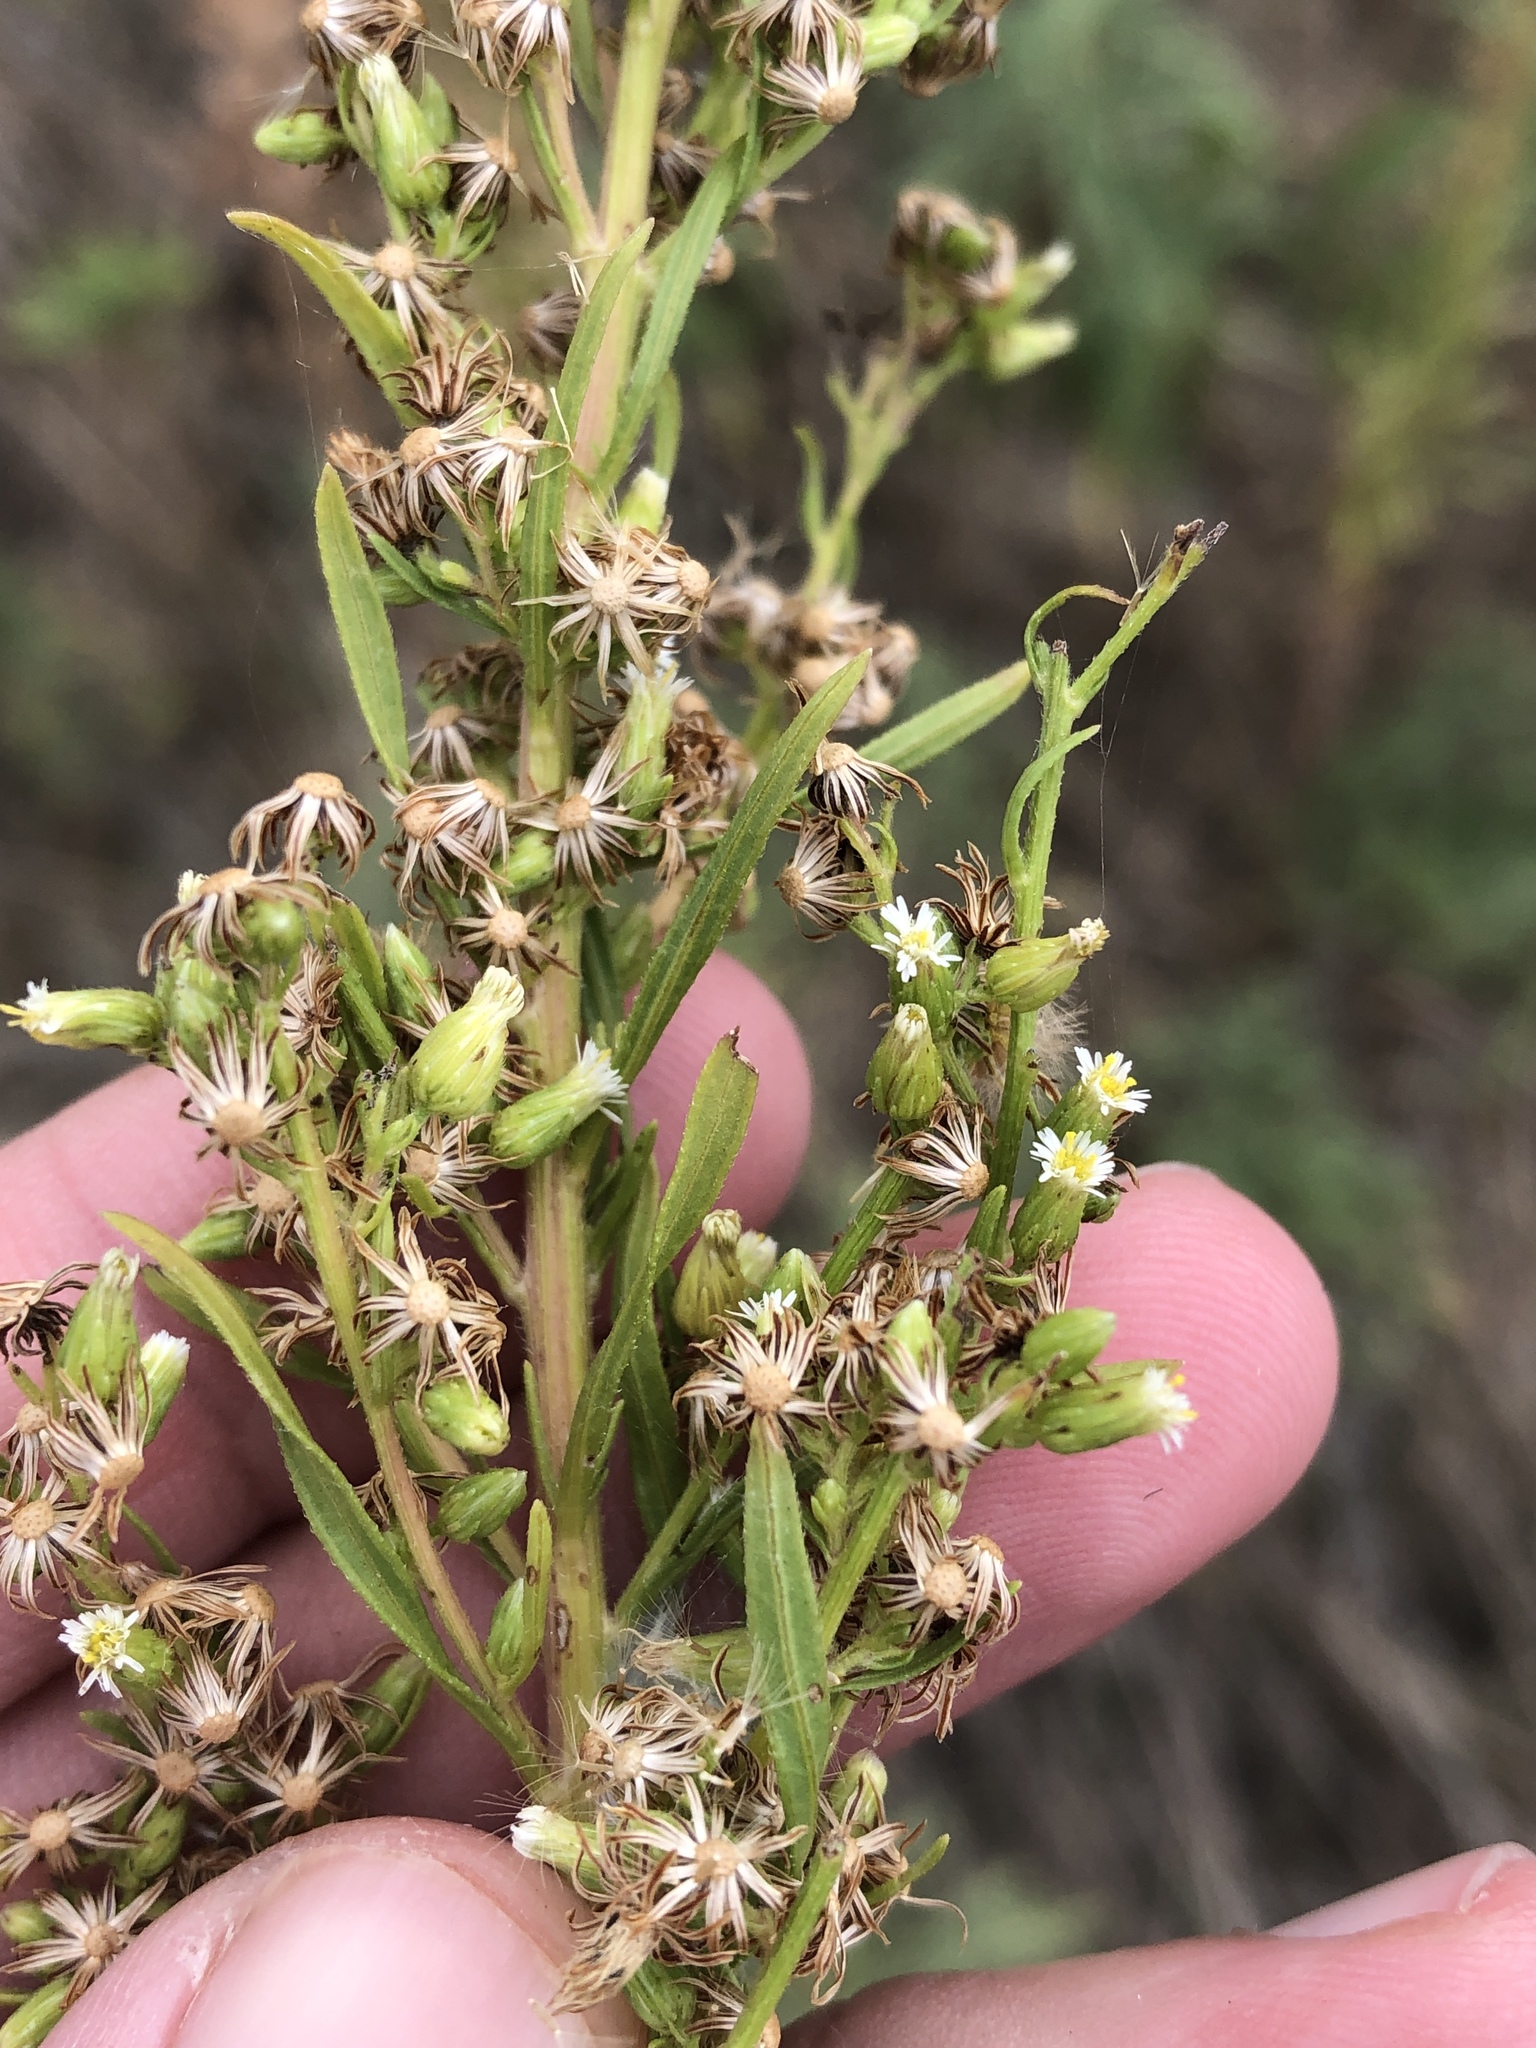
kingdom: Plantae
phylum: Tracheophyta
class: Magnoliopsida
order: Asterales
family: Asteraceae
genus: Erigeron
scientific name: Erigeron canadensis
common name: Canadian fleabane
